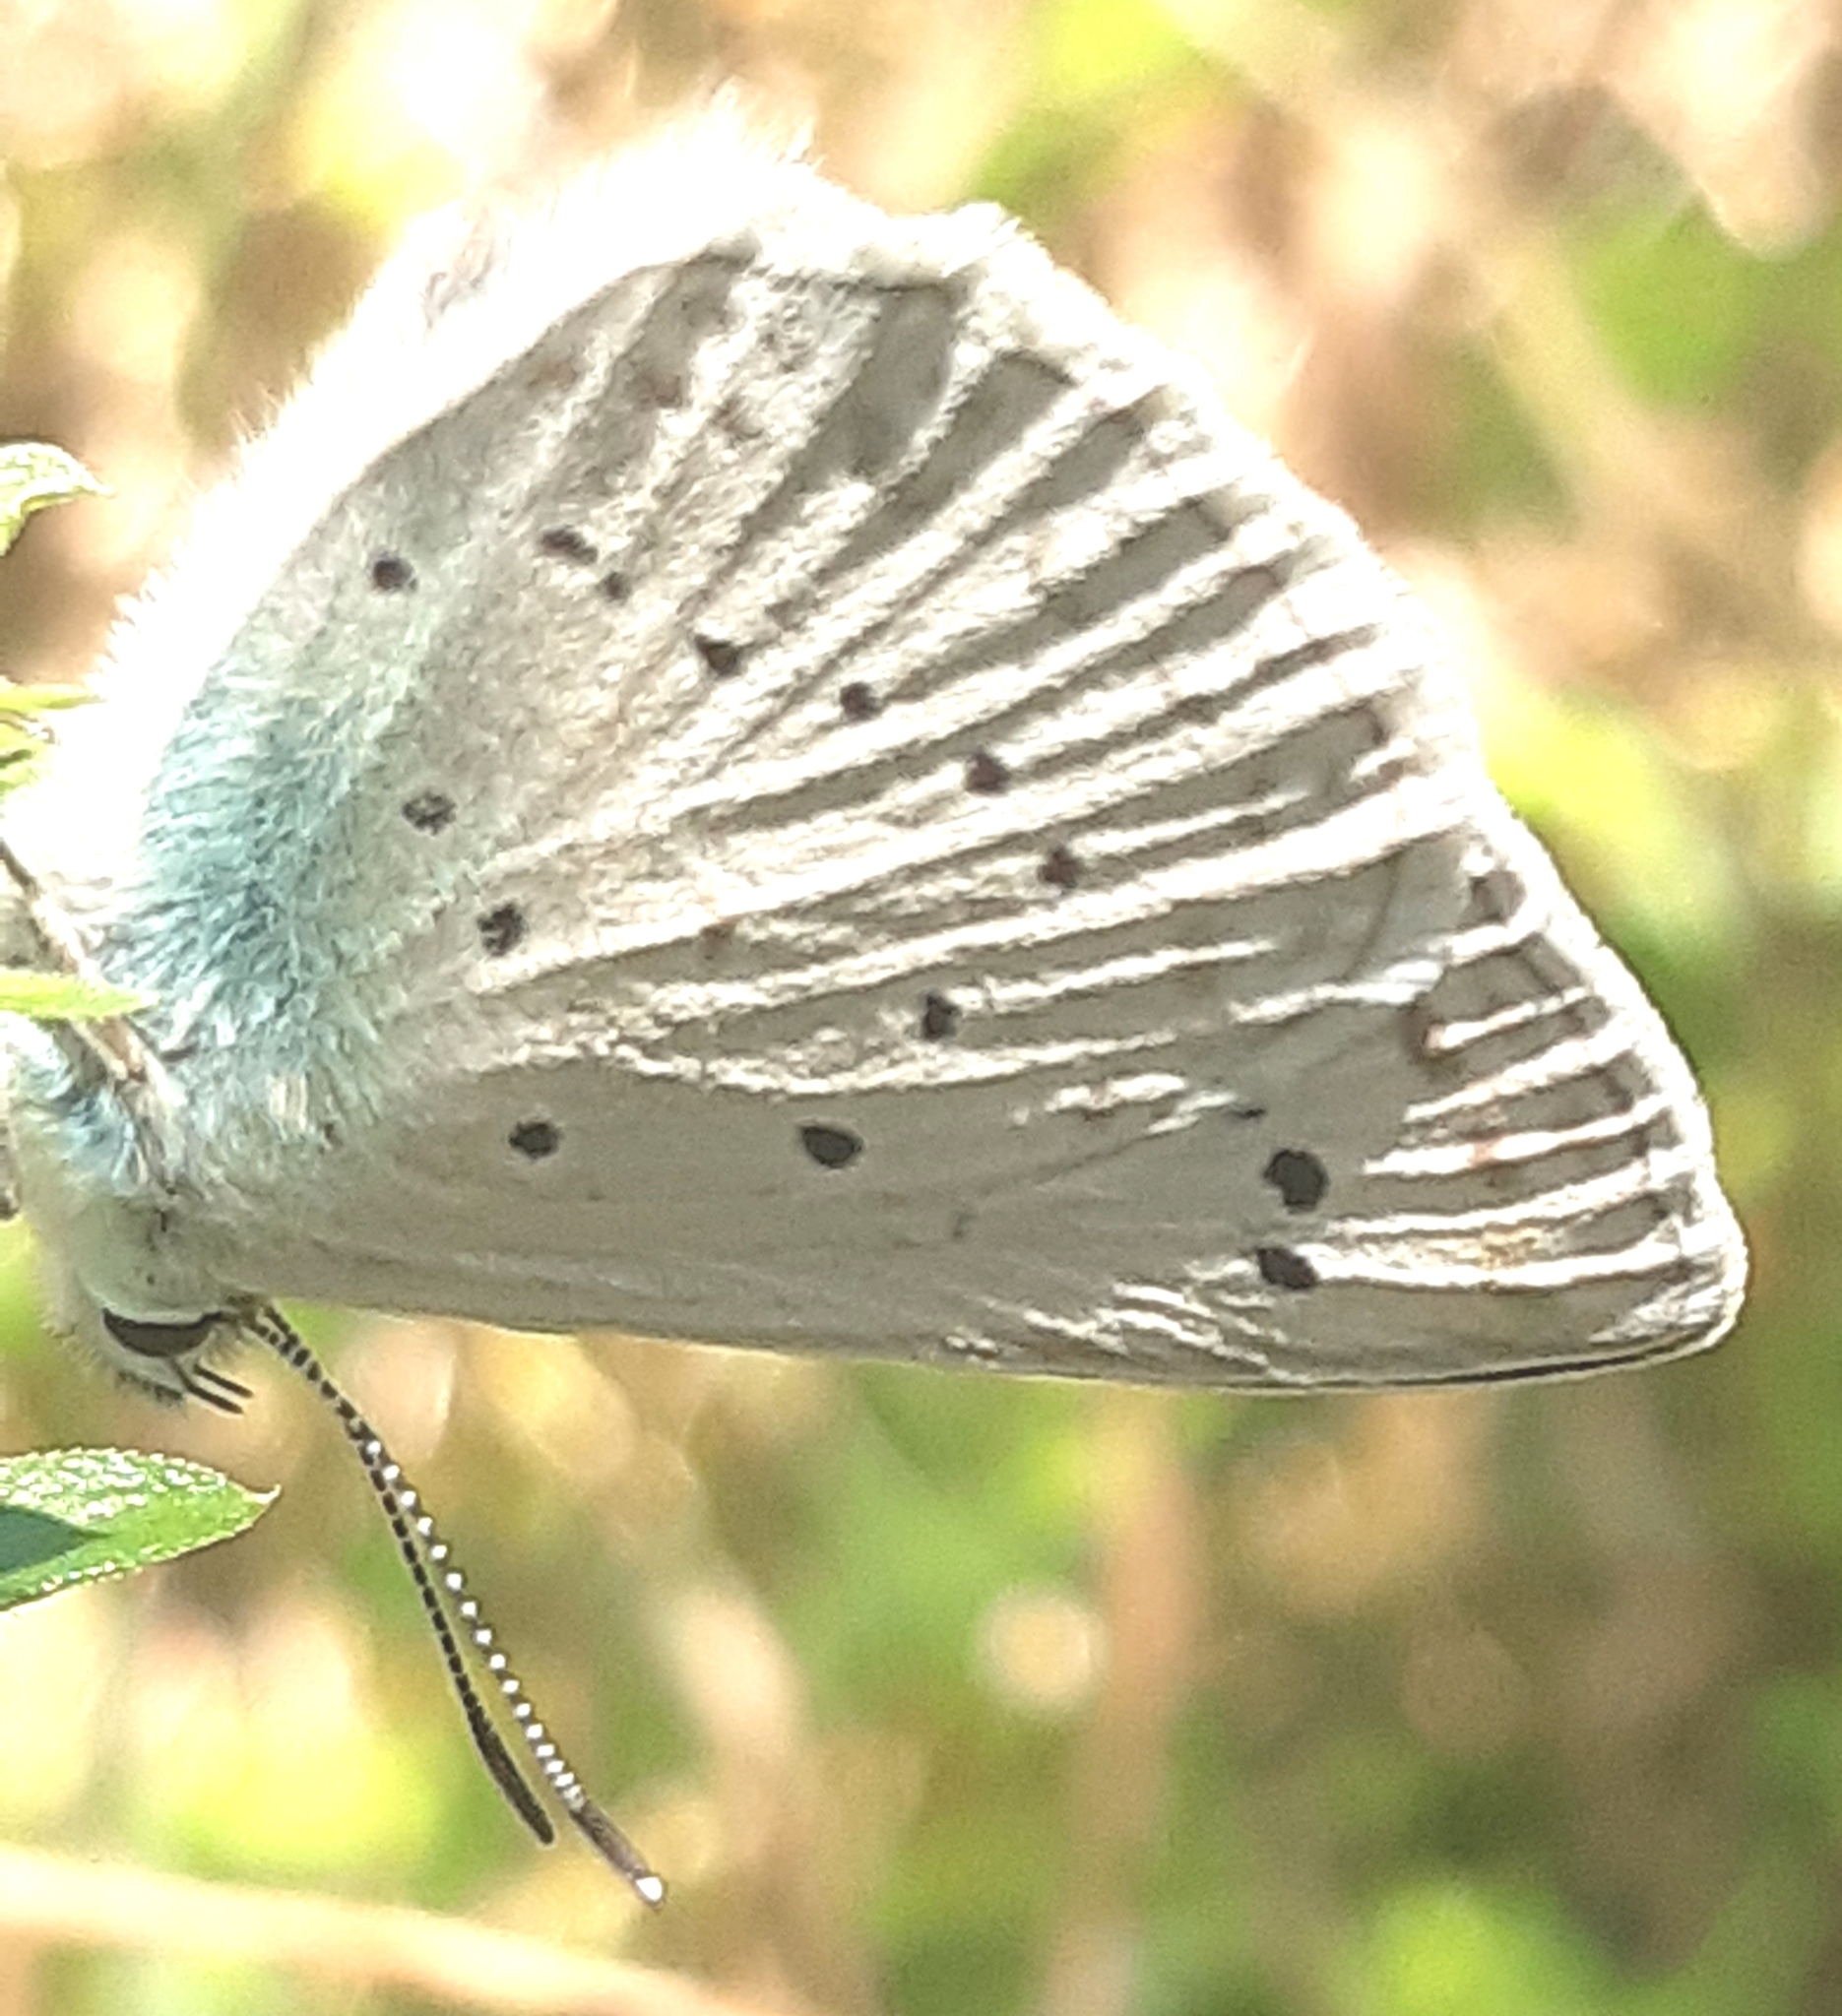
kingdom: Animalia
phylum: Arthropoda
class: Insecta
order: Lepidoptera
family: Lycaenidae
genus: Polyommatus
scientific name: Polyommatus daphnis
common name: Meleager's blue
